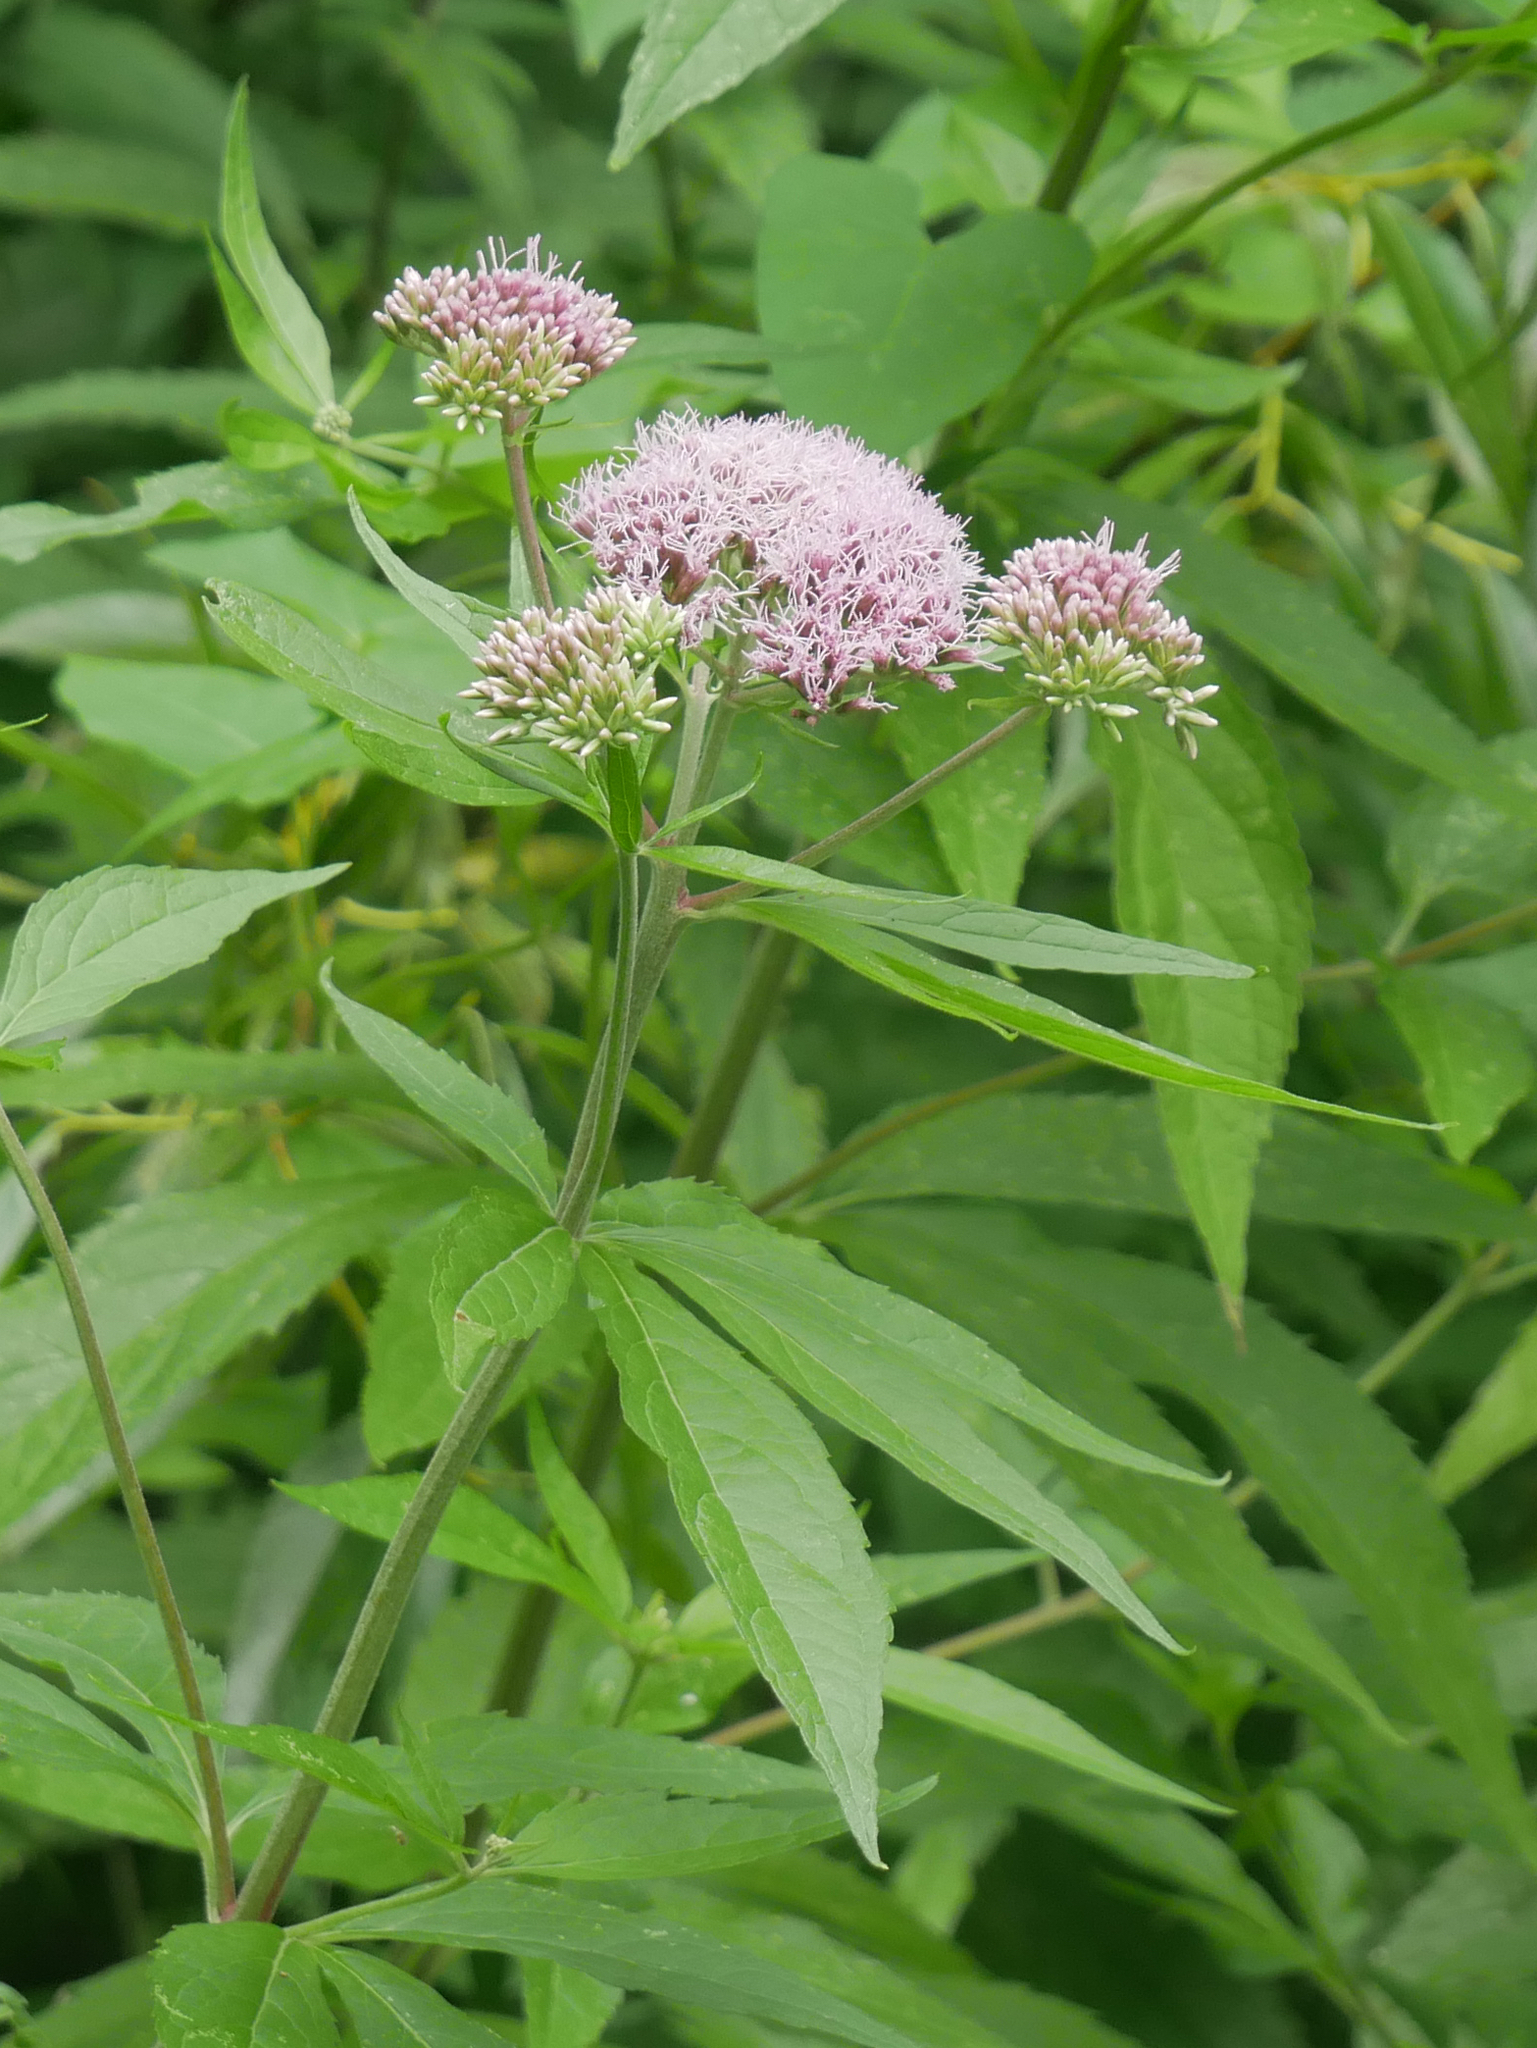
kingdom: Plantae
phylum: Tracheophyta
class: Magnoliopsida
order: Asterales
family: Asteraceae
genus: Eupatorium
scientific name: Eupatorium cannabinum
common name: Hemp-agrimony
